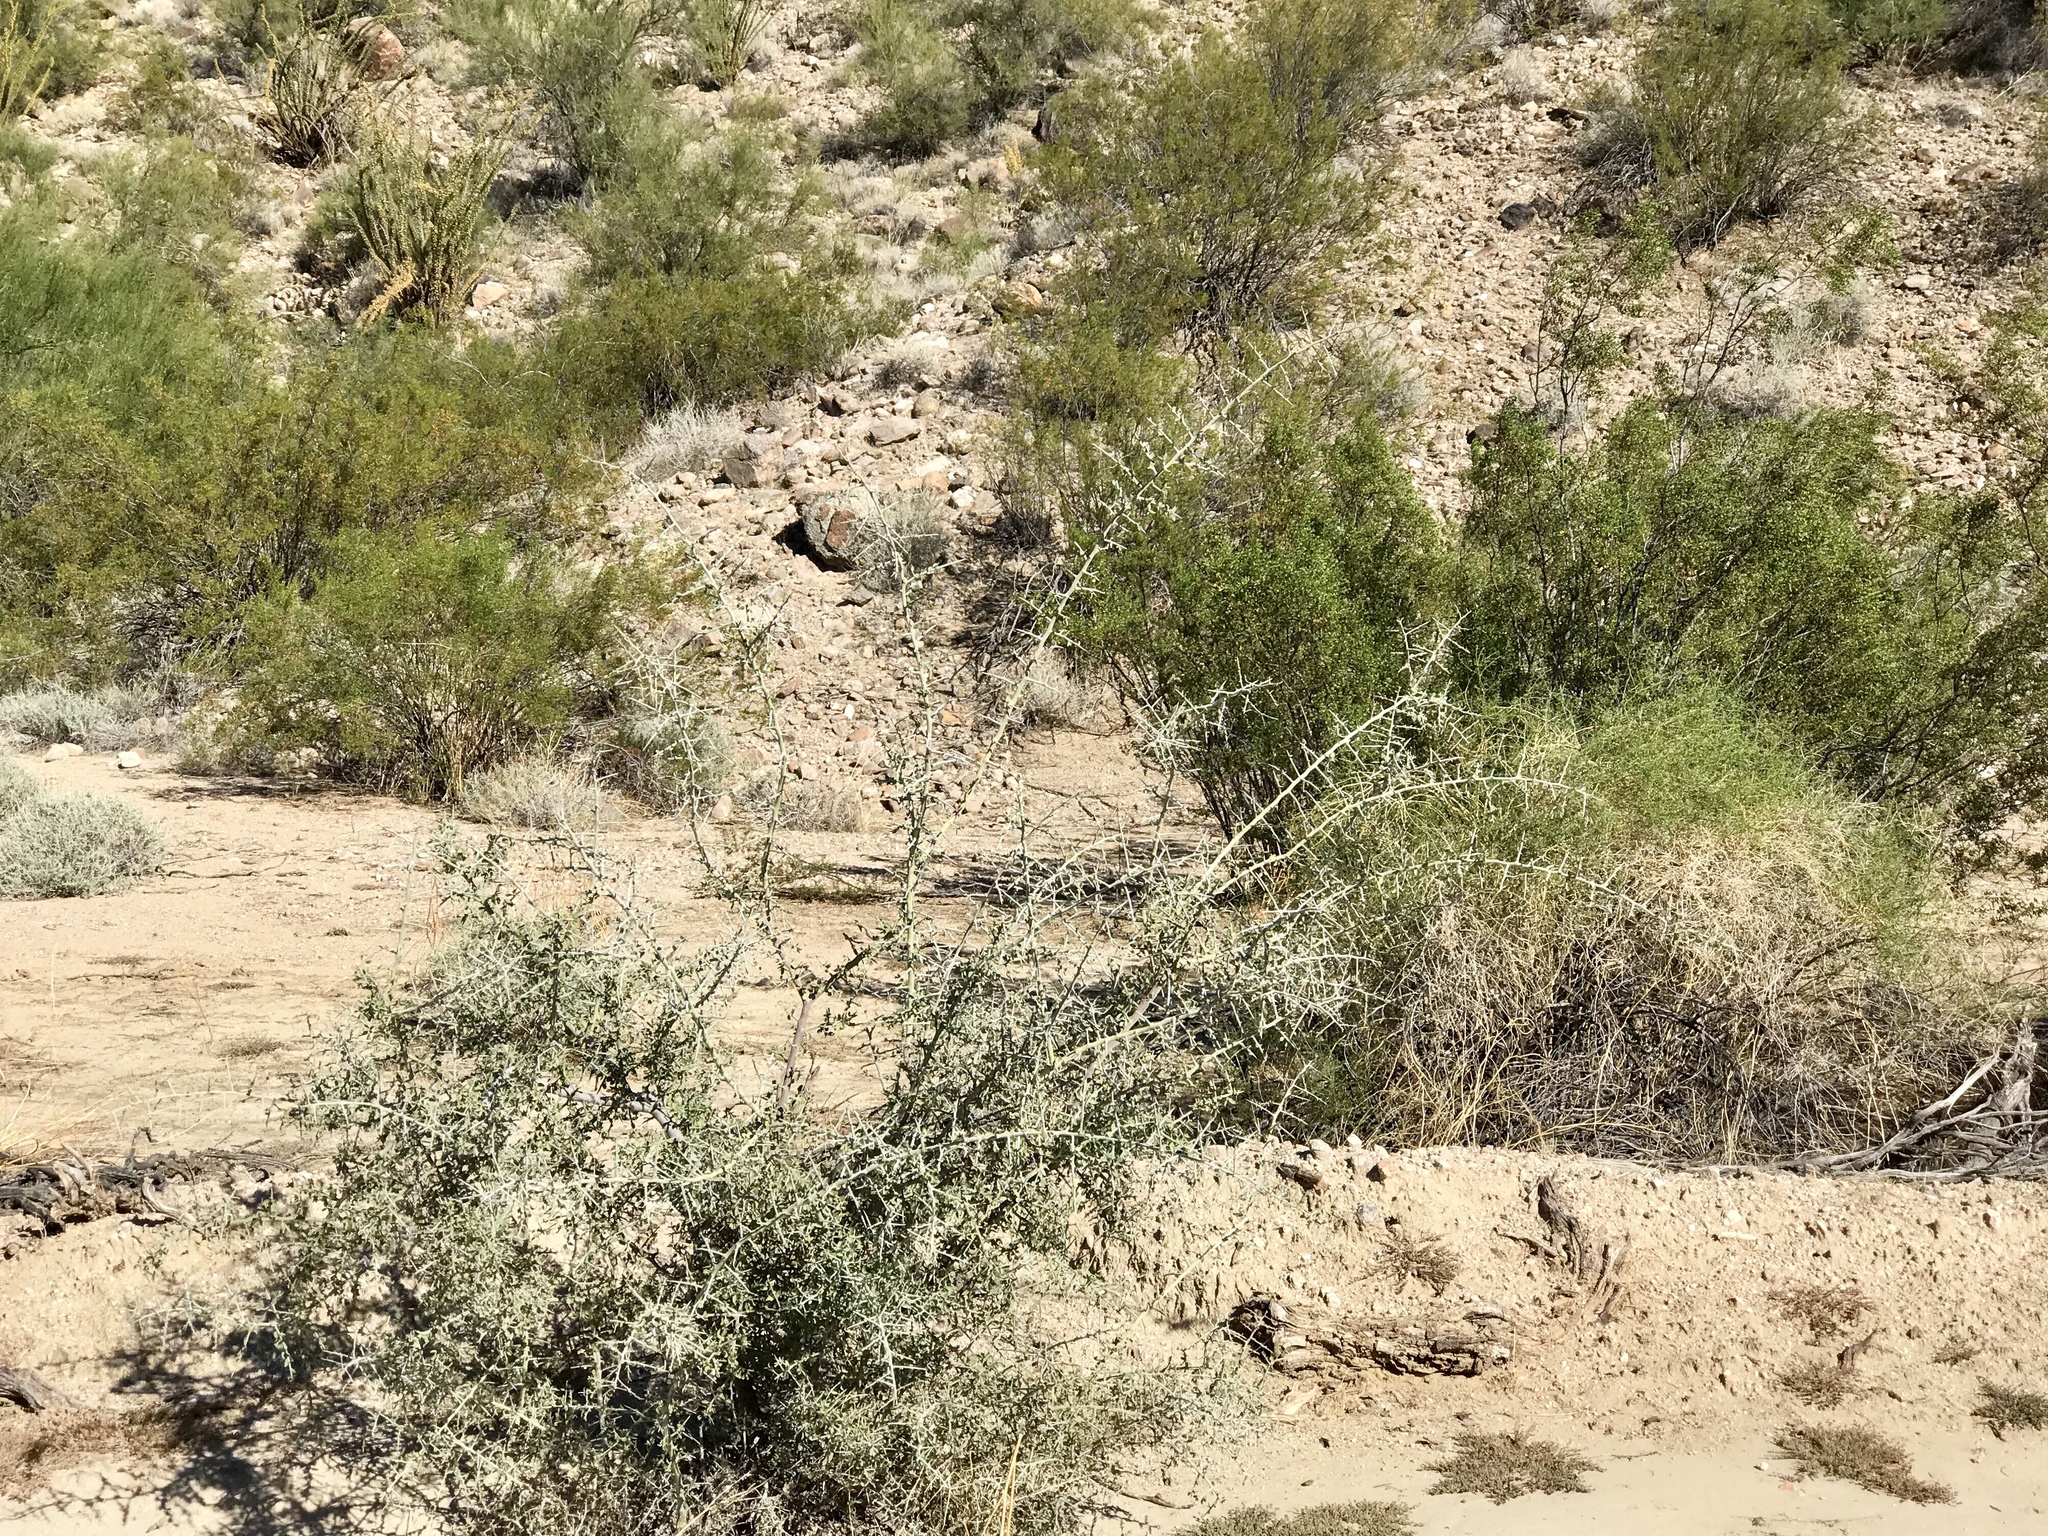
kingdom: Plantae
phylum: Tracheophyta
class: Magnoliopsida
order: Rosales
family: Rhamnaceae
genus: Sarcomphalus
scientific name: Sarcomphalus obtusifolius
